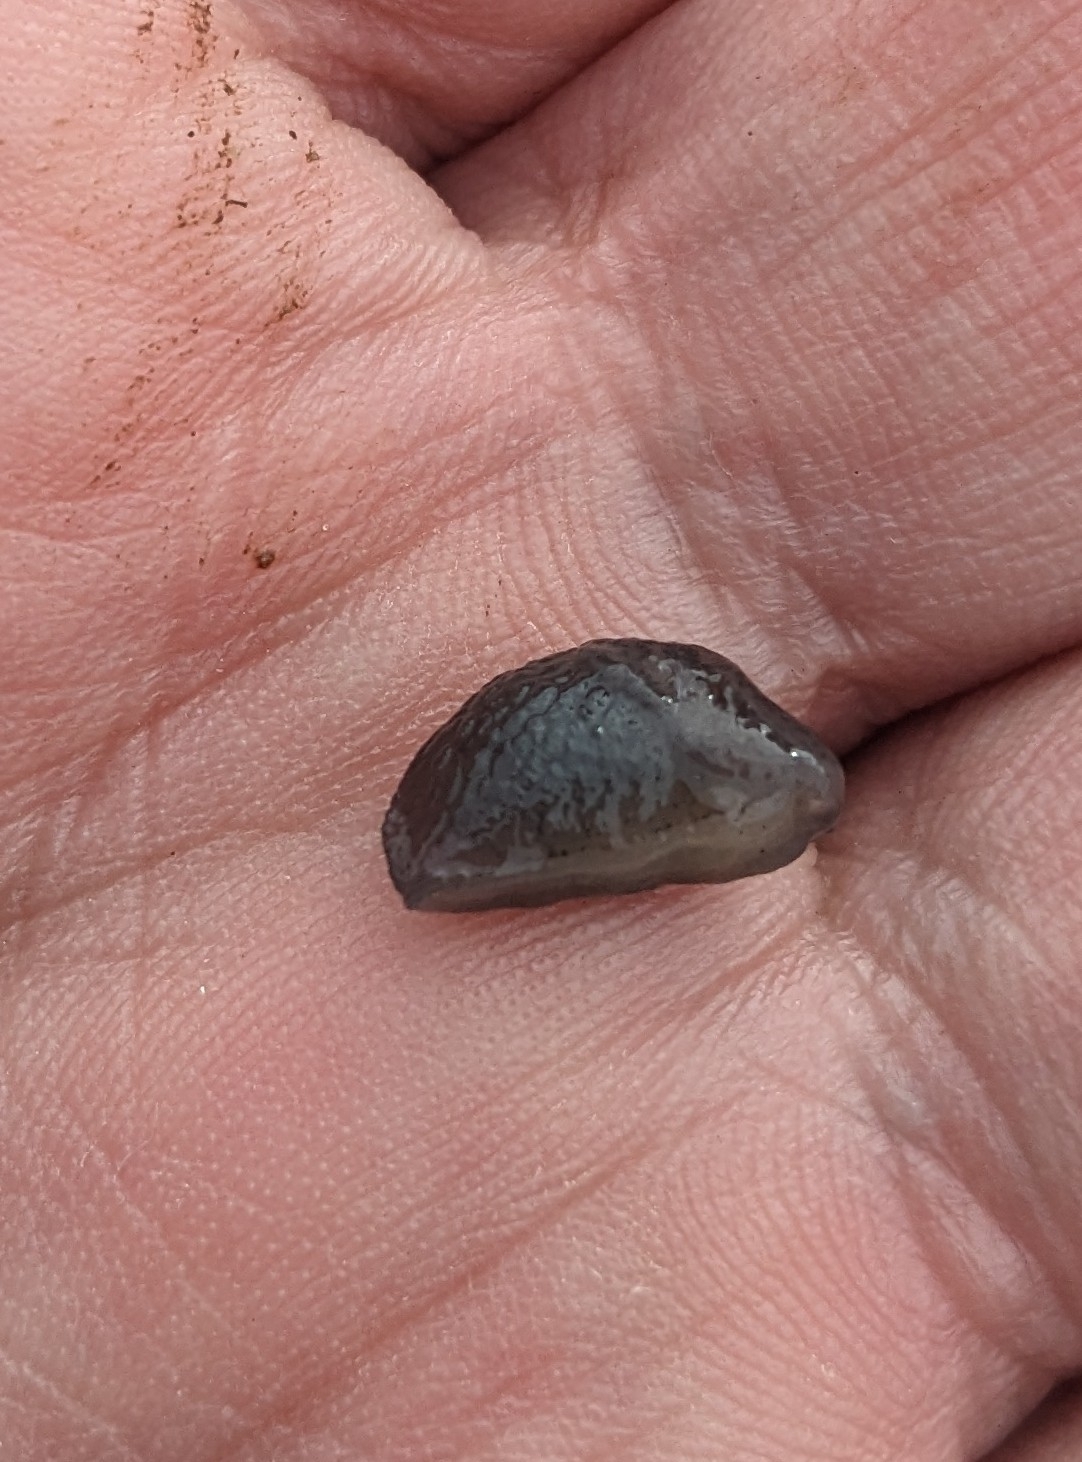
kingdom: Animalia
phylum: Mollusca
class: Gastropoda
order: Stylommatophora
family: Agriolimacidae
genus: Deroceras
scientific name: Deroceras invadens
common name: Caruana's slug
